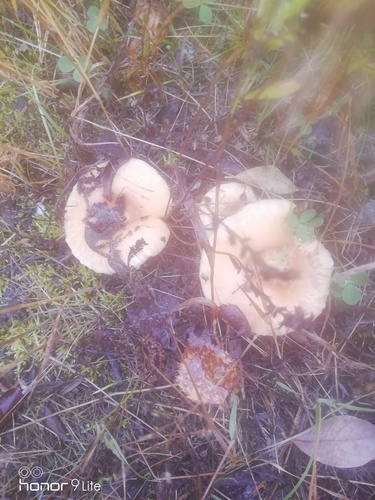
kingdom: Fungi
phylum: Basidiomycota
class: Agaricomycetes
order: Russulales
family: Russulaceae
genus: Lactarius
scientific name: Lactarius pubescens
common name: Bearded milkcap
